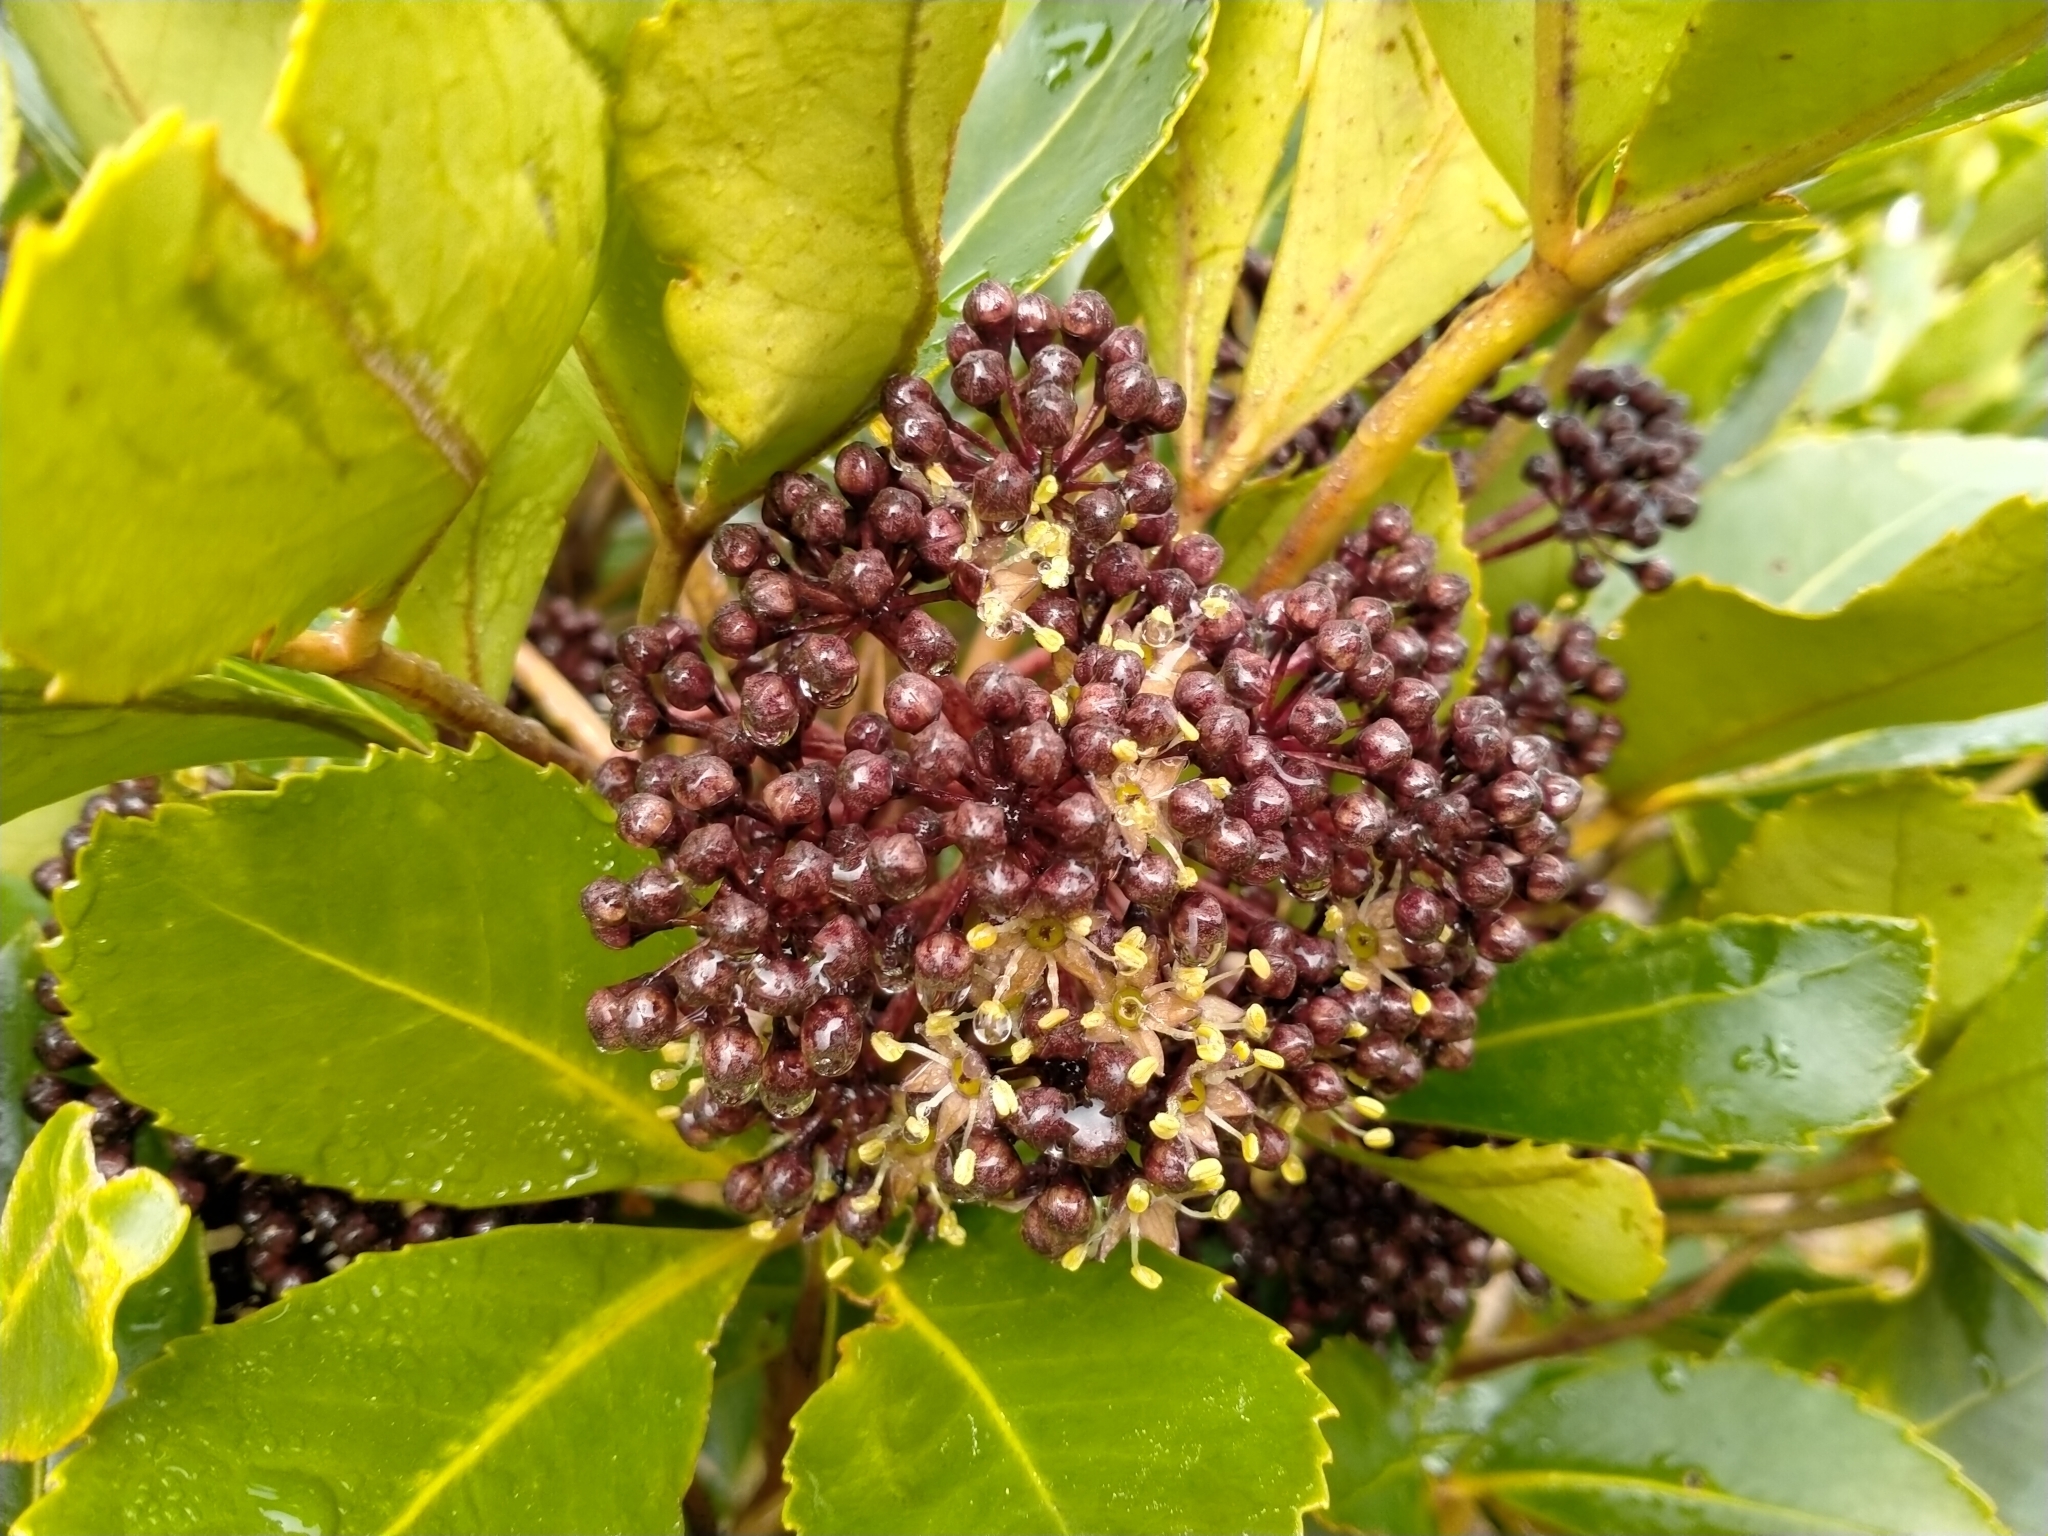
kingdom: Plantae
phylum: Tracheophyta
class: Magnoliopsida
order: Apiales
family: Araliaceae
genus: Neopanax
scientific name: Neopanax colensoi
